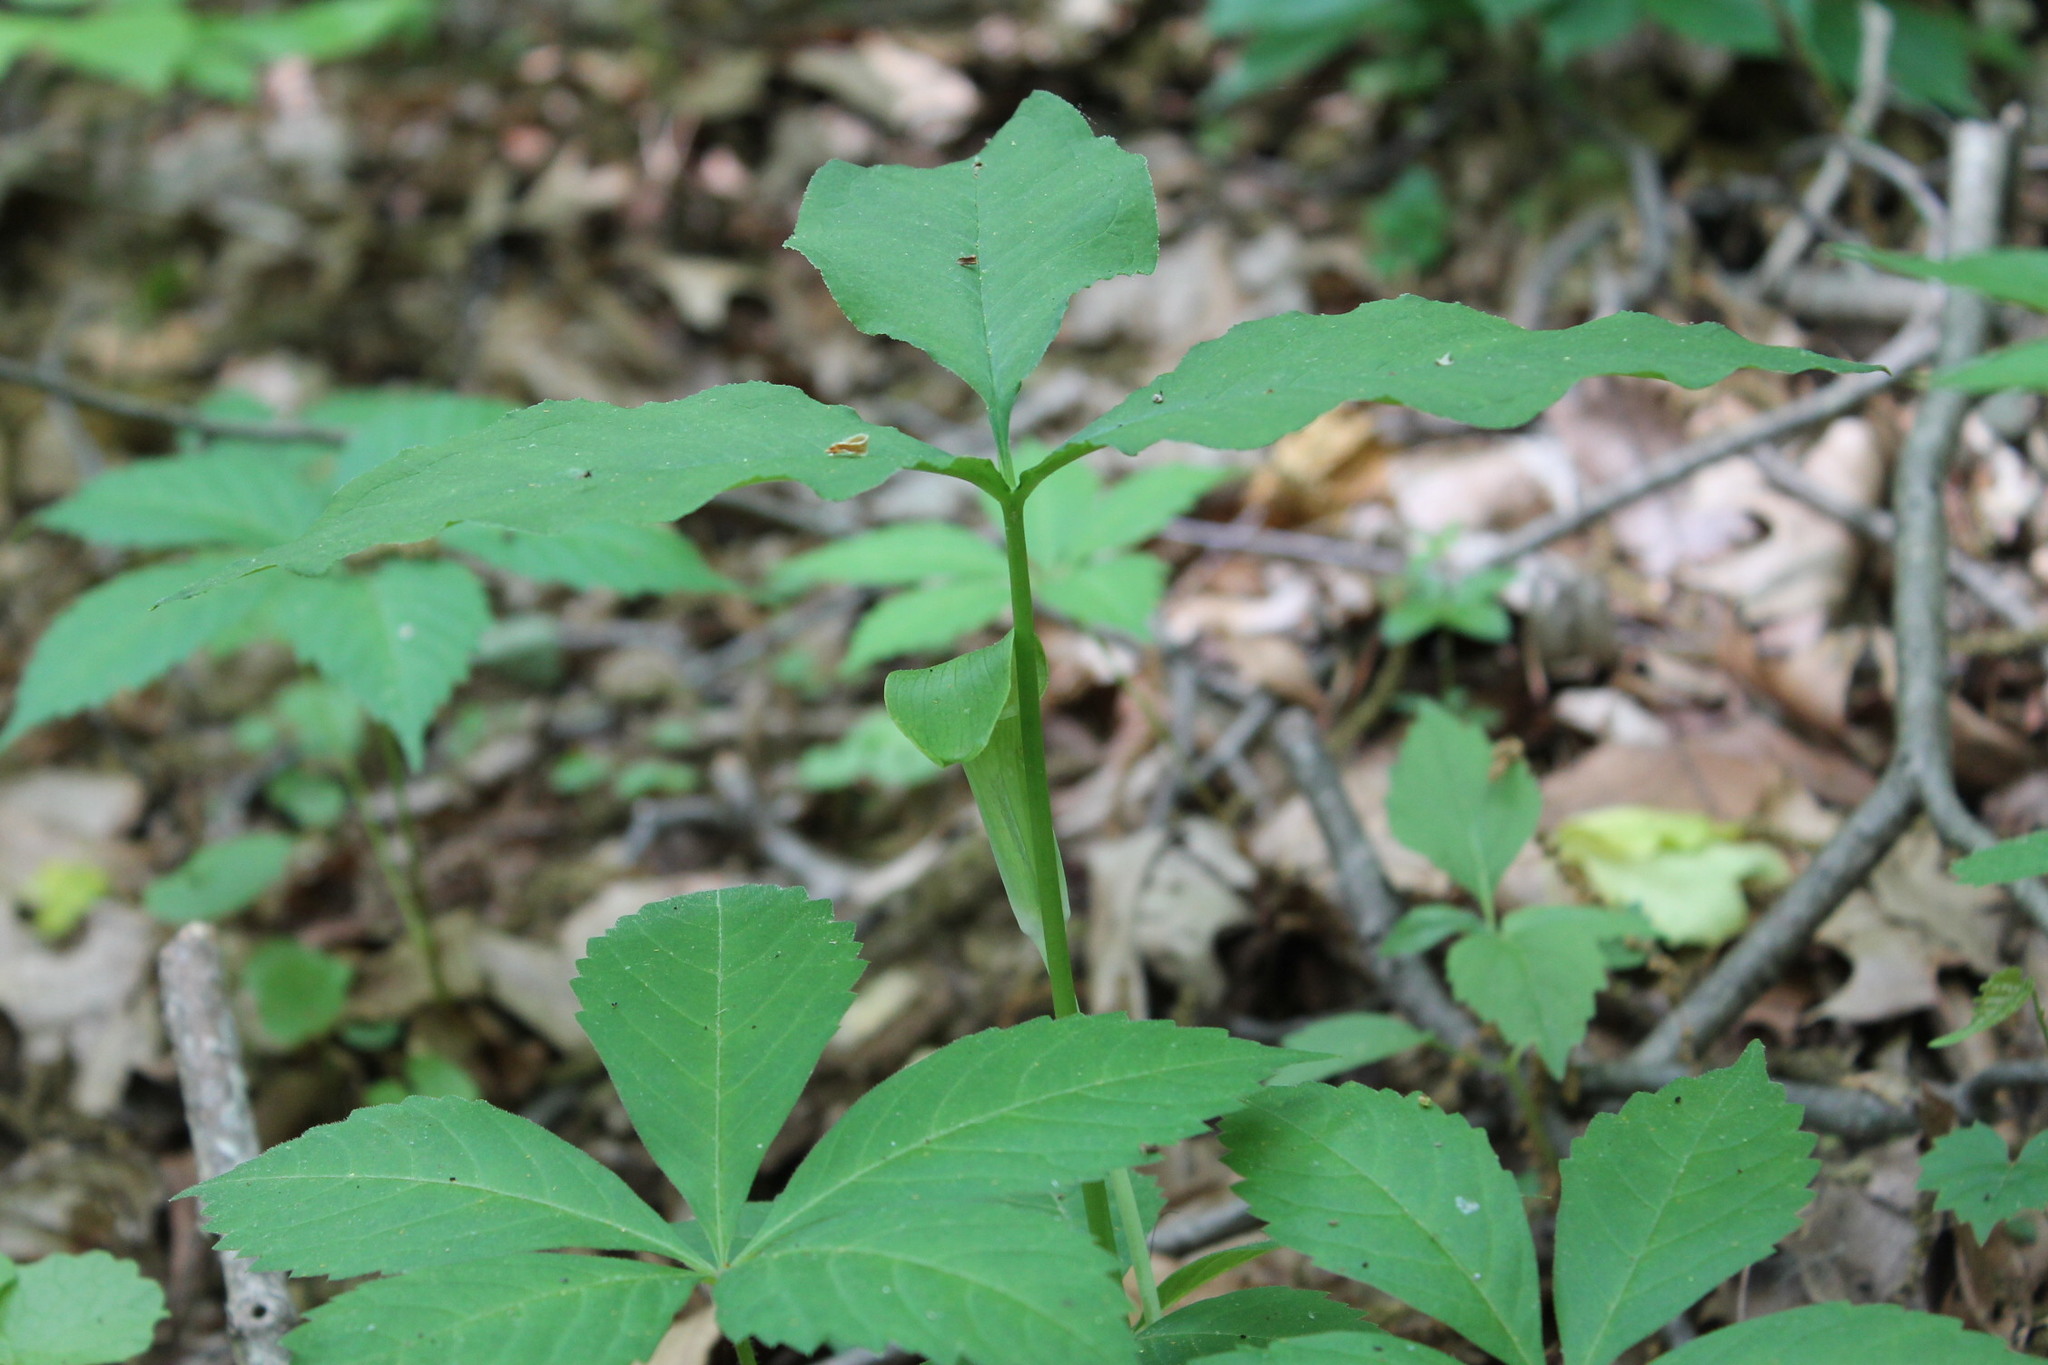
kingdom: Plantae
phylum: Tracheophyta
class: Liliopsida
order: Alismatales
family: Araceae
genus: Arisaema
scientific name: Arisaema triphyllum
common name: Jack-in-the-pulpit
